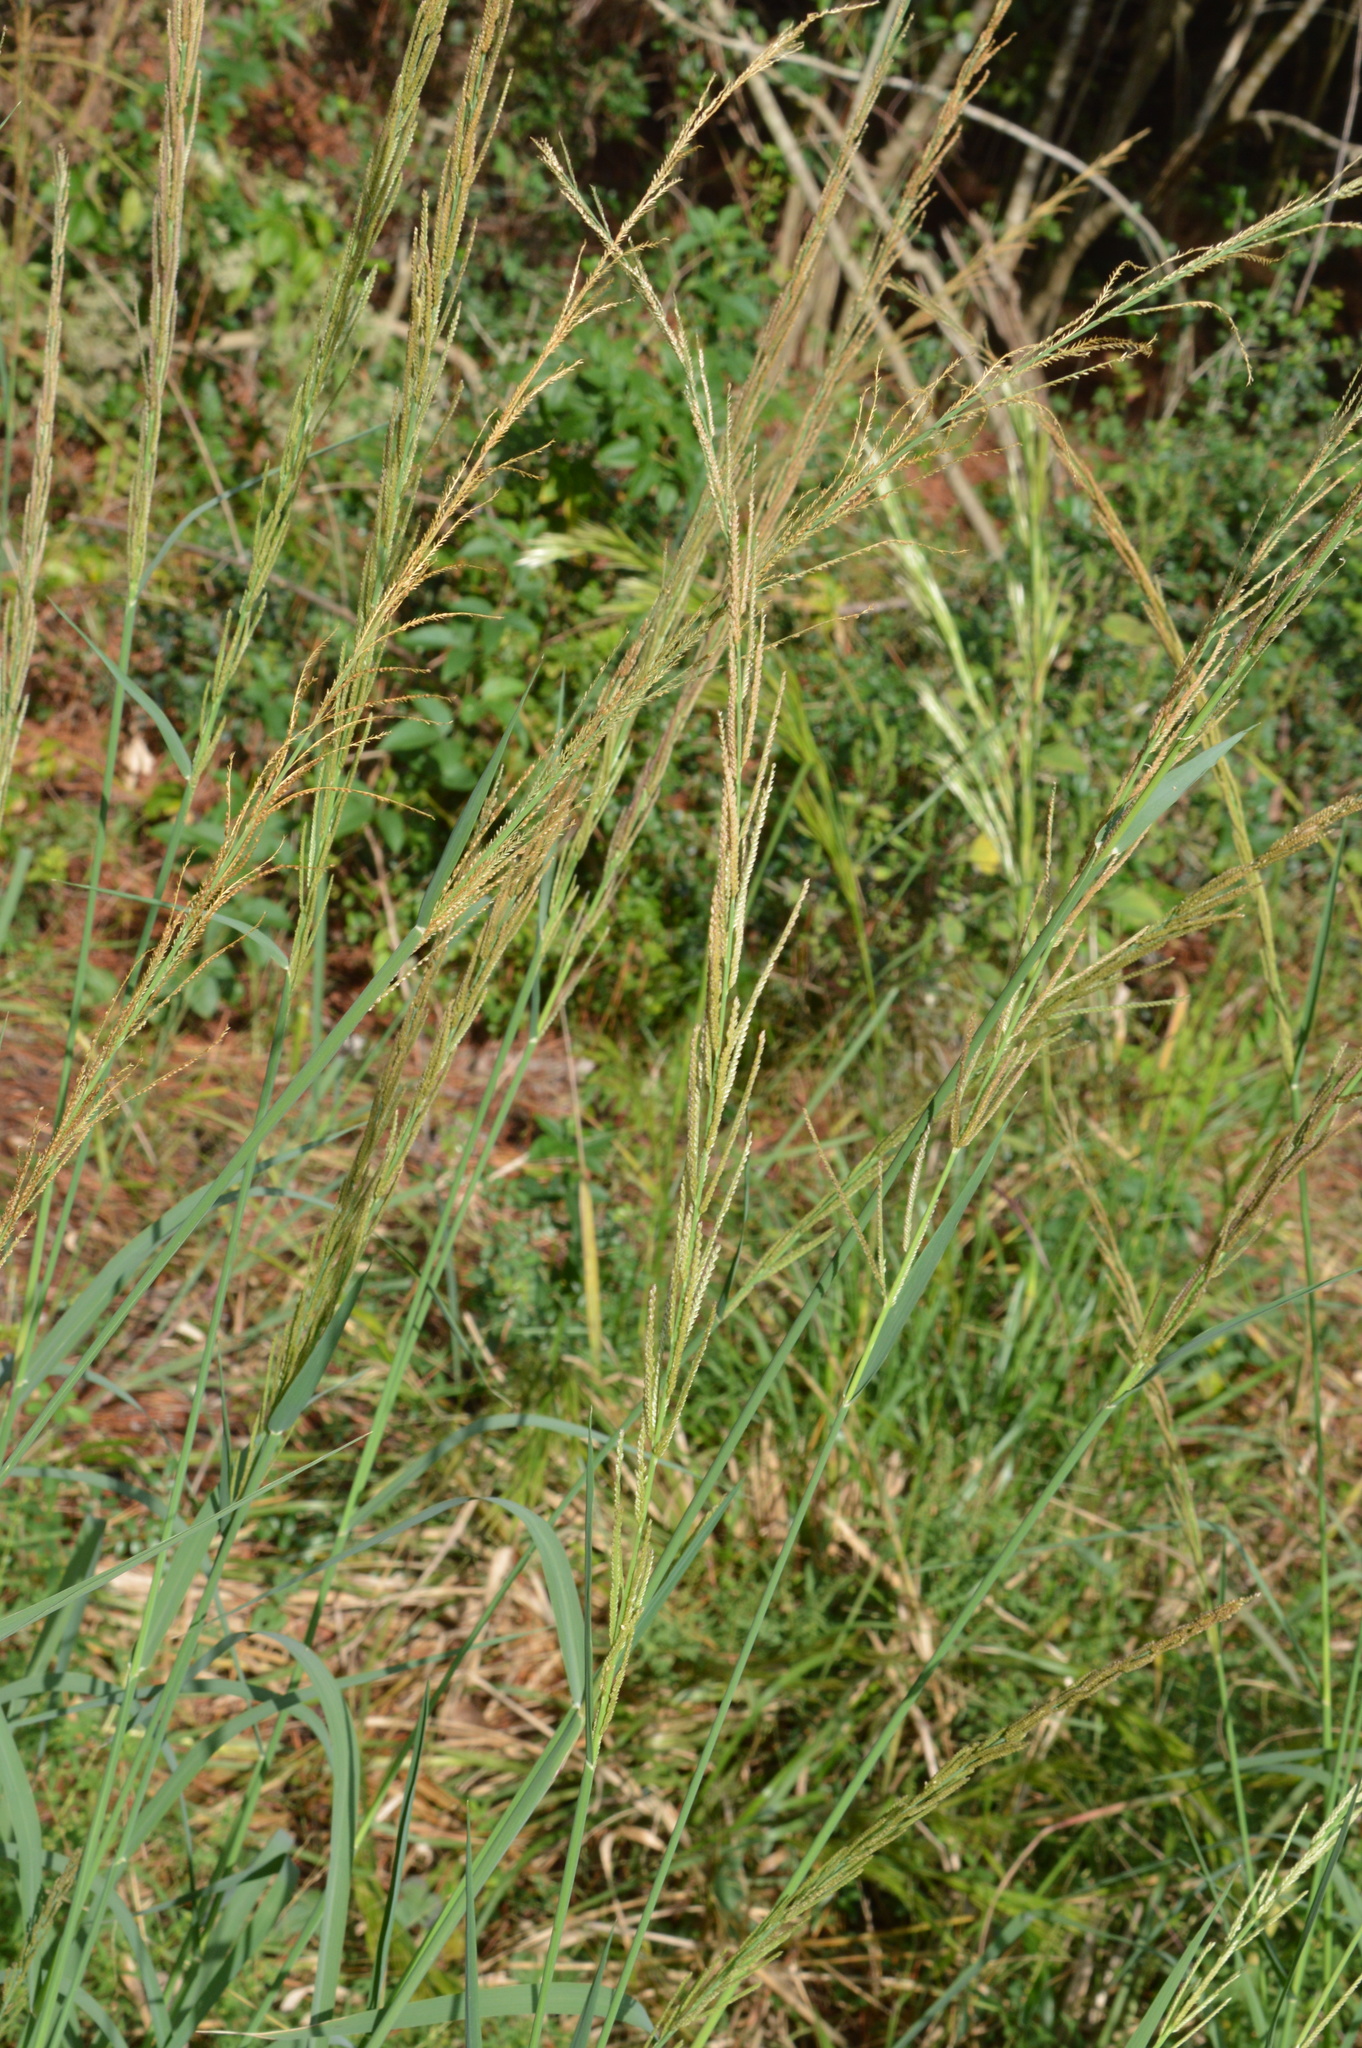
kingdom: Plantae
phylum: Tracheophyta
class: Liliopsida
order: Poales
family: Poaceae
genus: Leptochloa
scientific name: Leptochloa nealleyi
